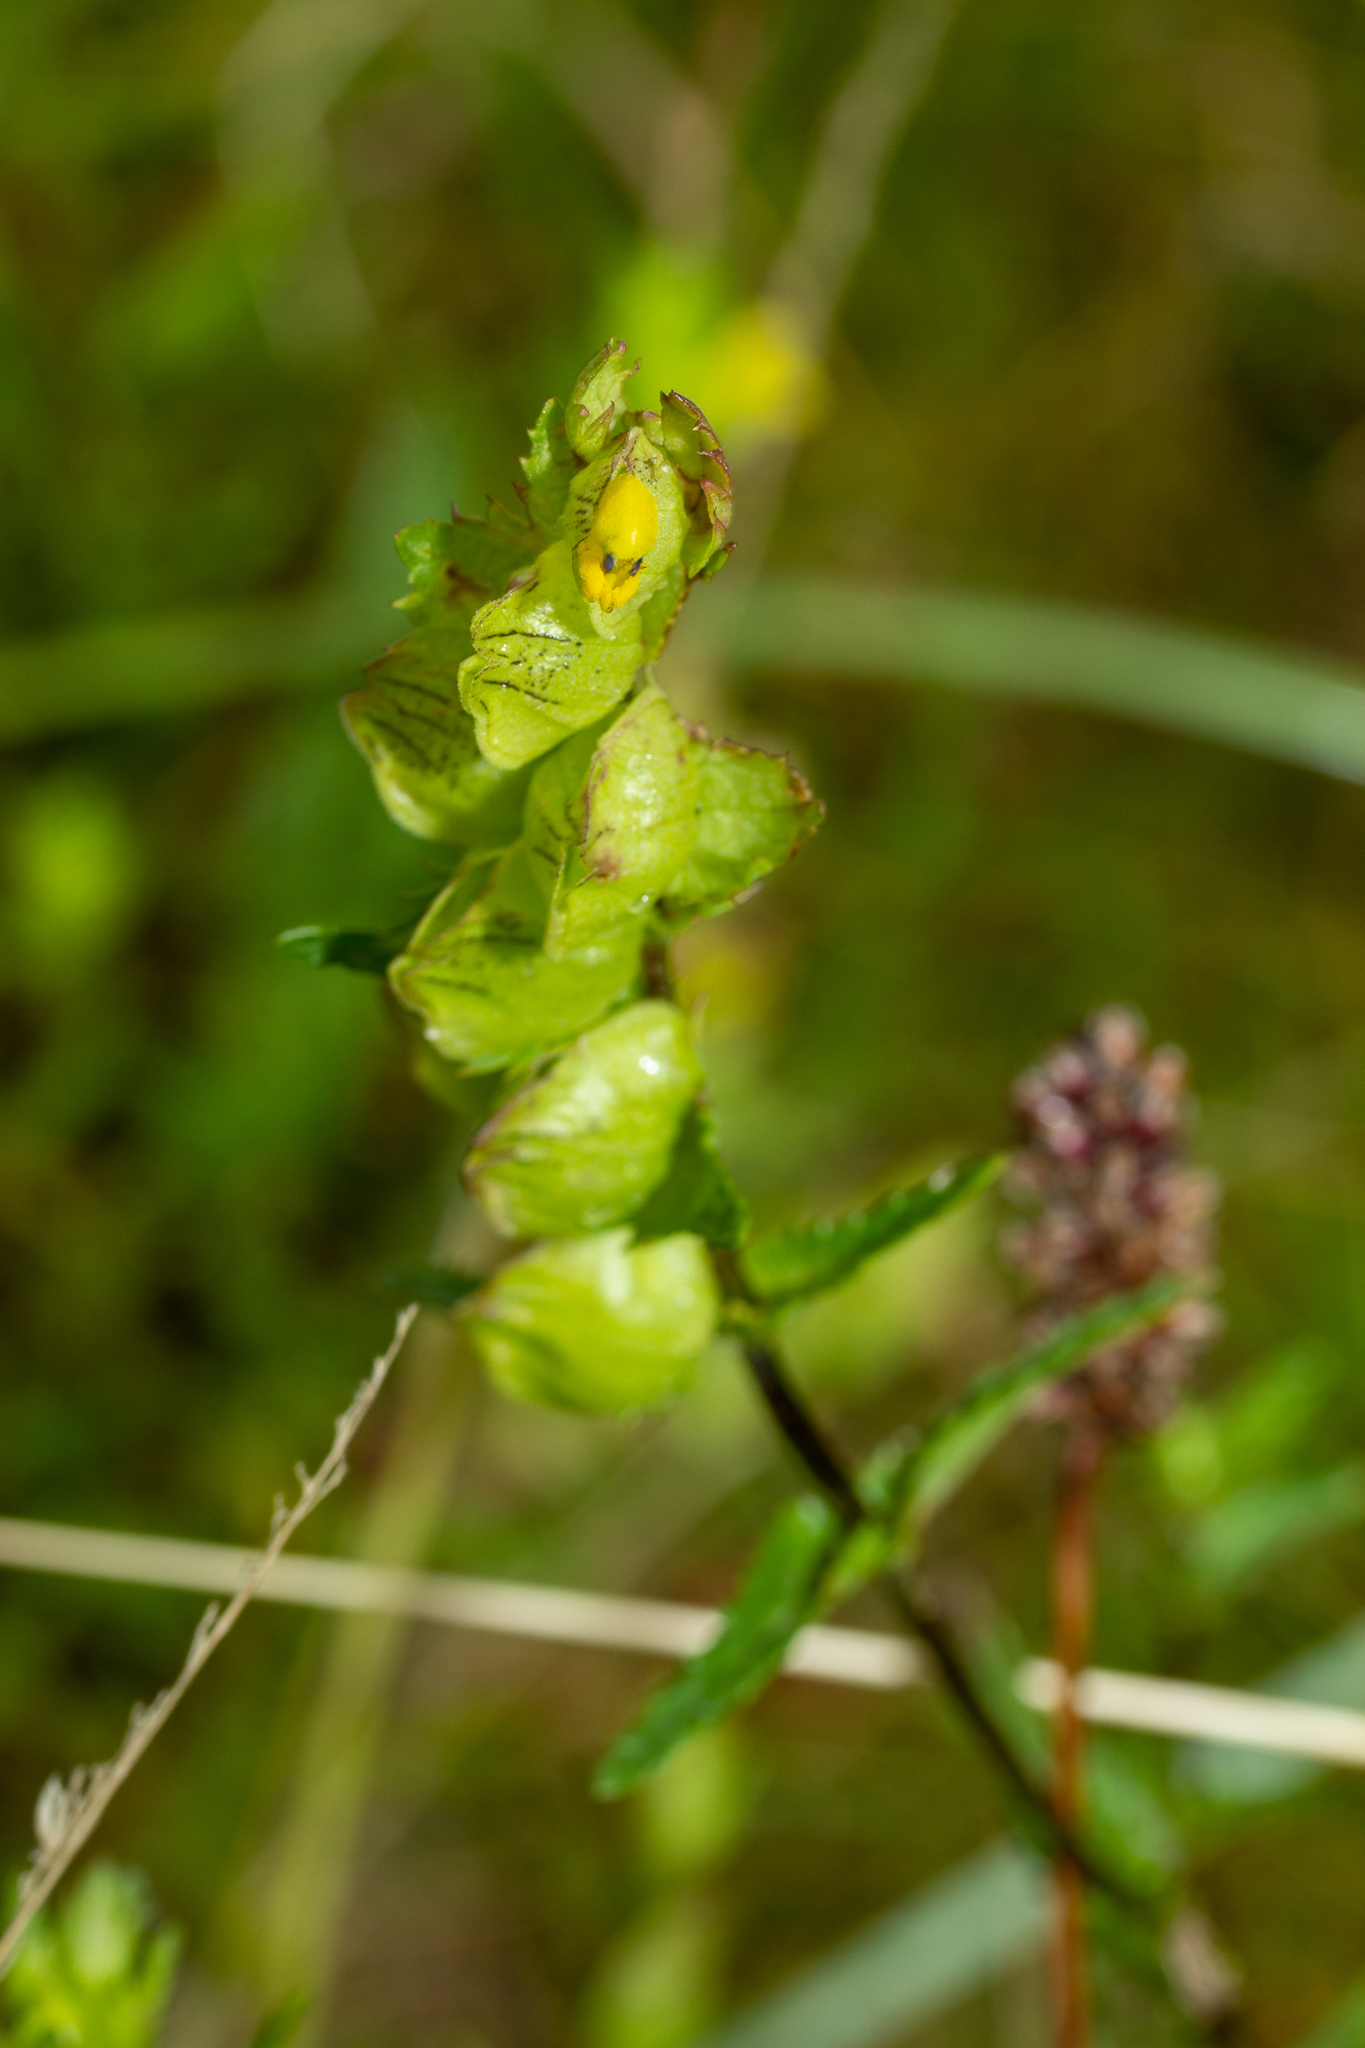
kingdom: Plantae
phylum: Tracheophyta
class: Magnoliopsida
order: Lamiales
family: Orobanchaceae
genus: Rhinanthus
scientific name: Rhinanthus minor
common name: Yellow-rattle
